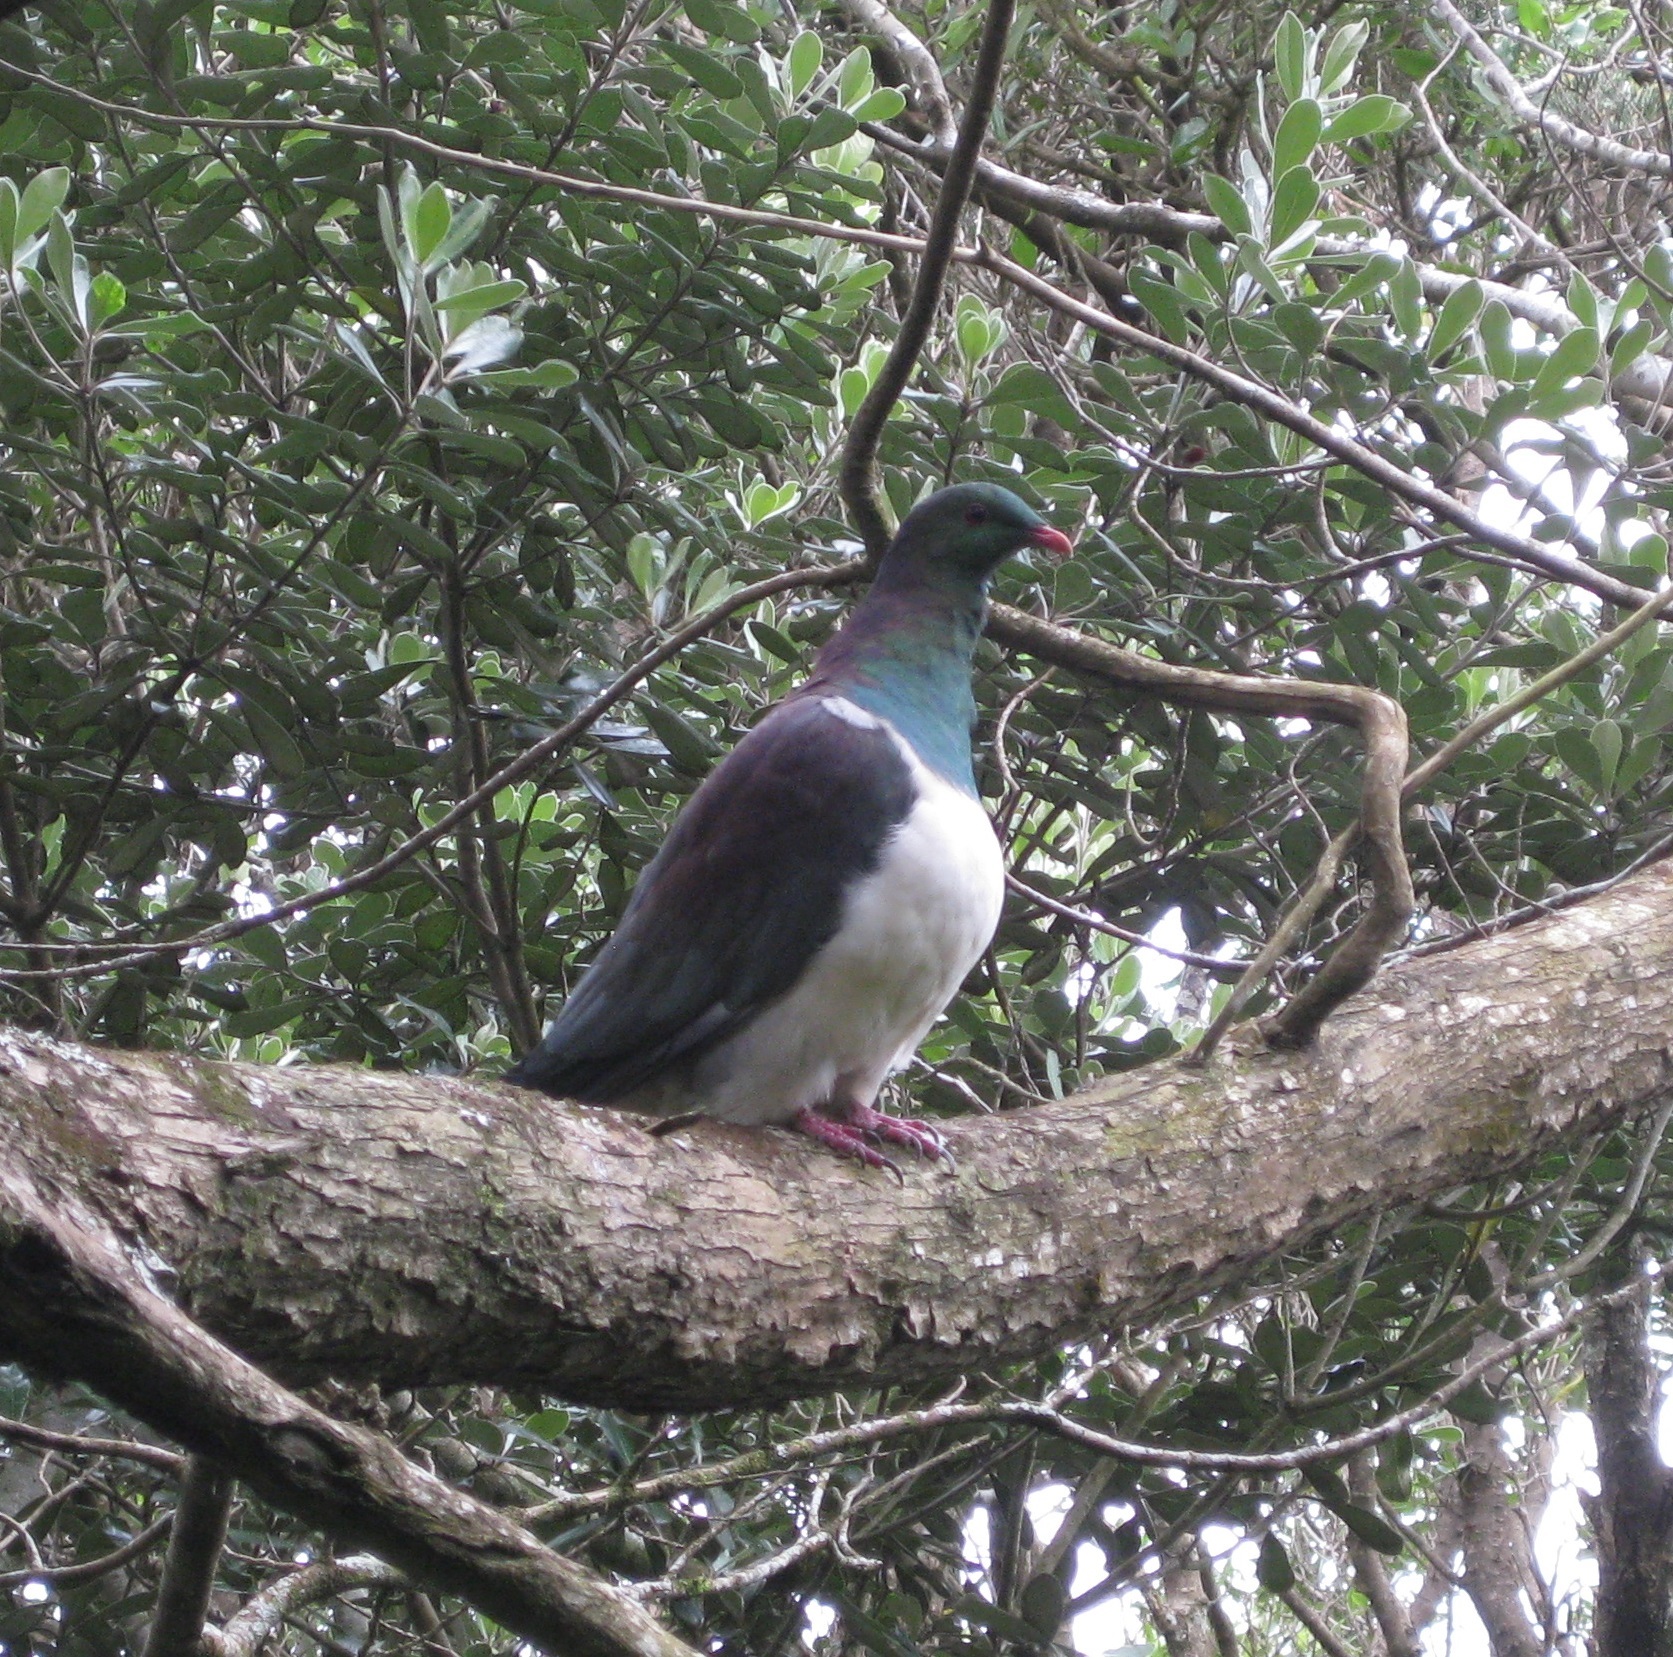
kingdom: Animalia
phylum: Chordata
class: Aves
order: Columbiformes
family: Columbidae
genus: Hemiphaga
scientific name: Hemiphaga novaeseelandiae
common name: New zealand pigeon
